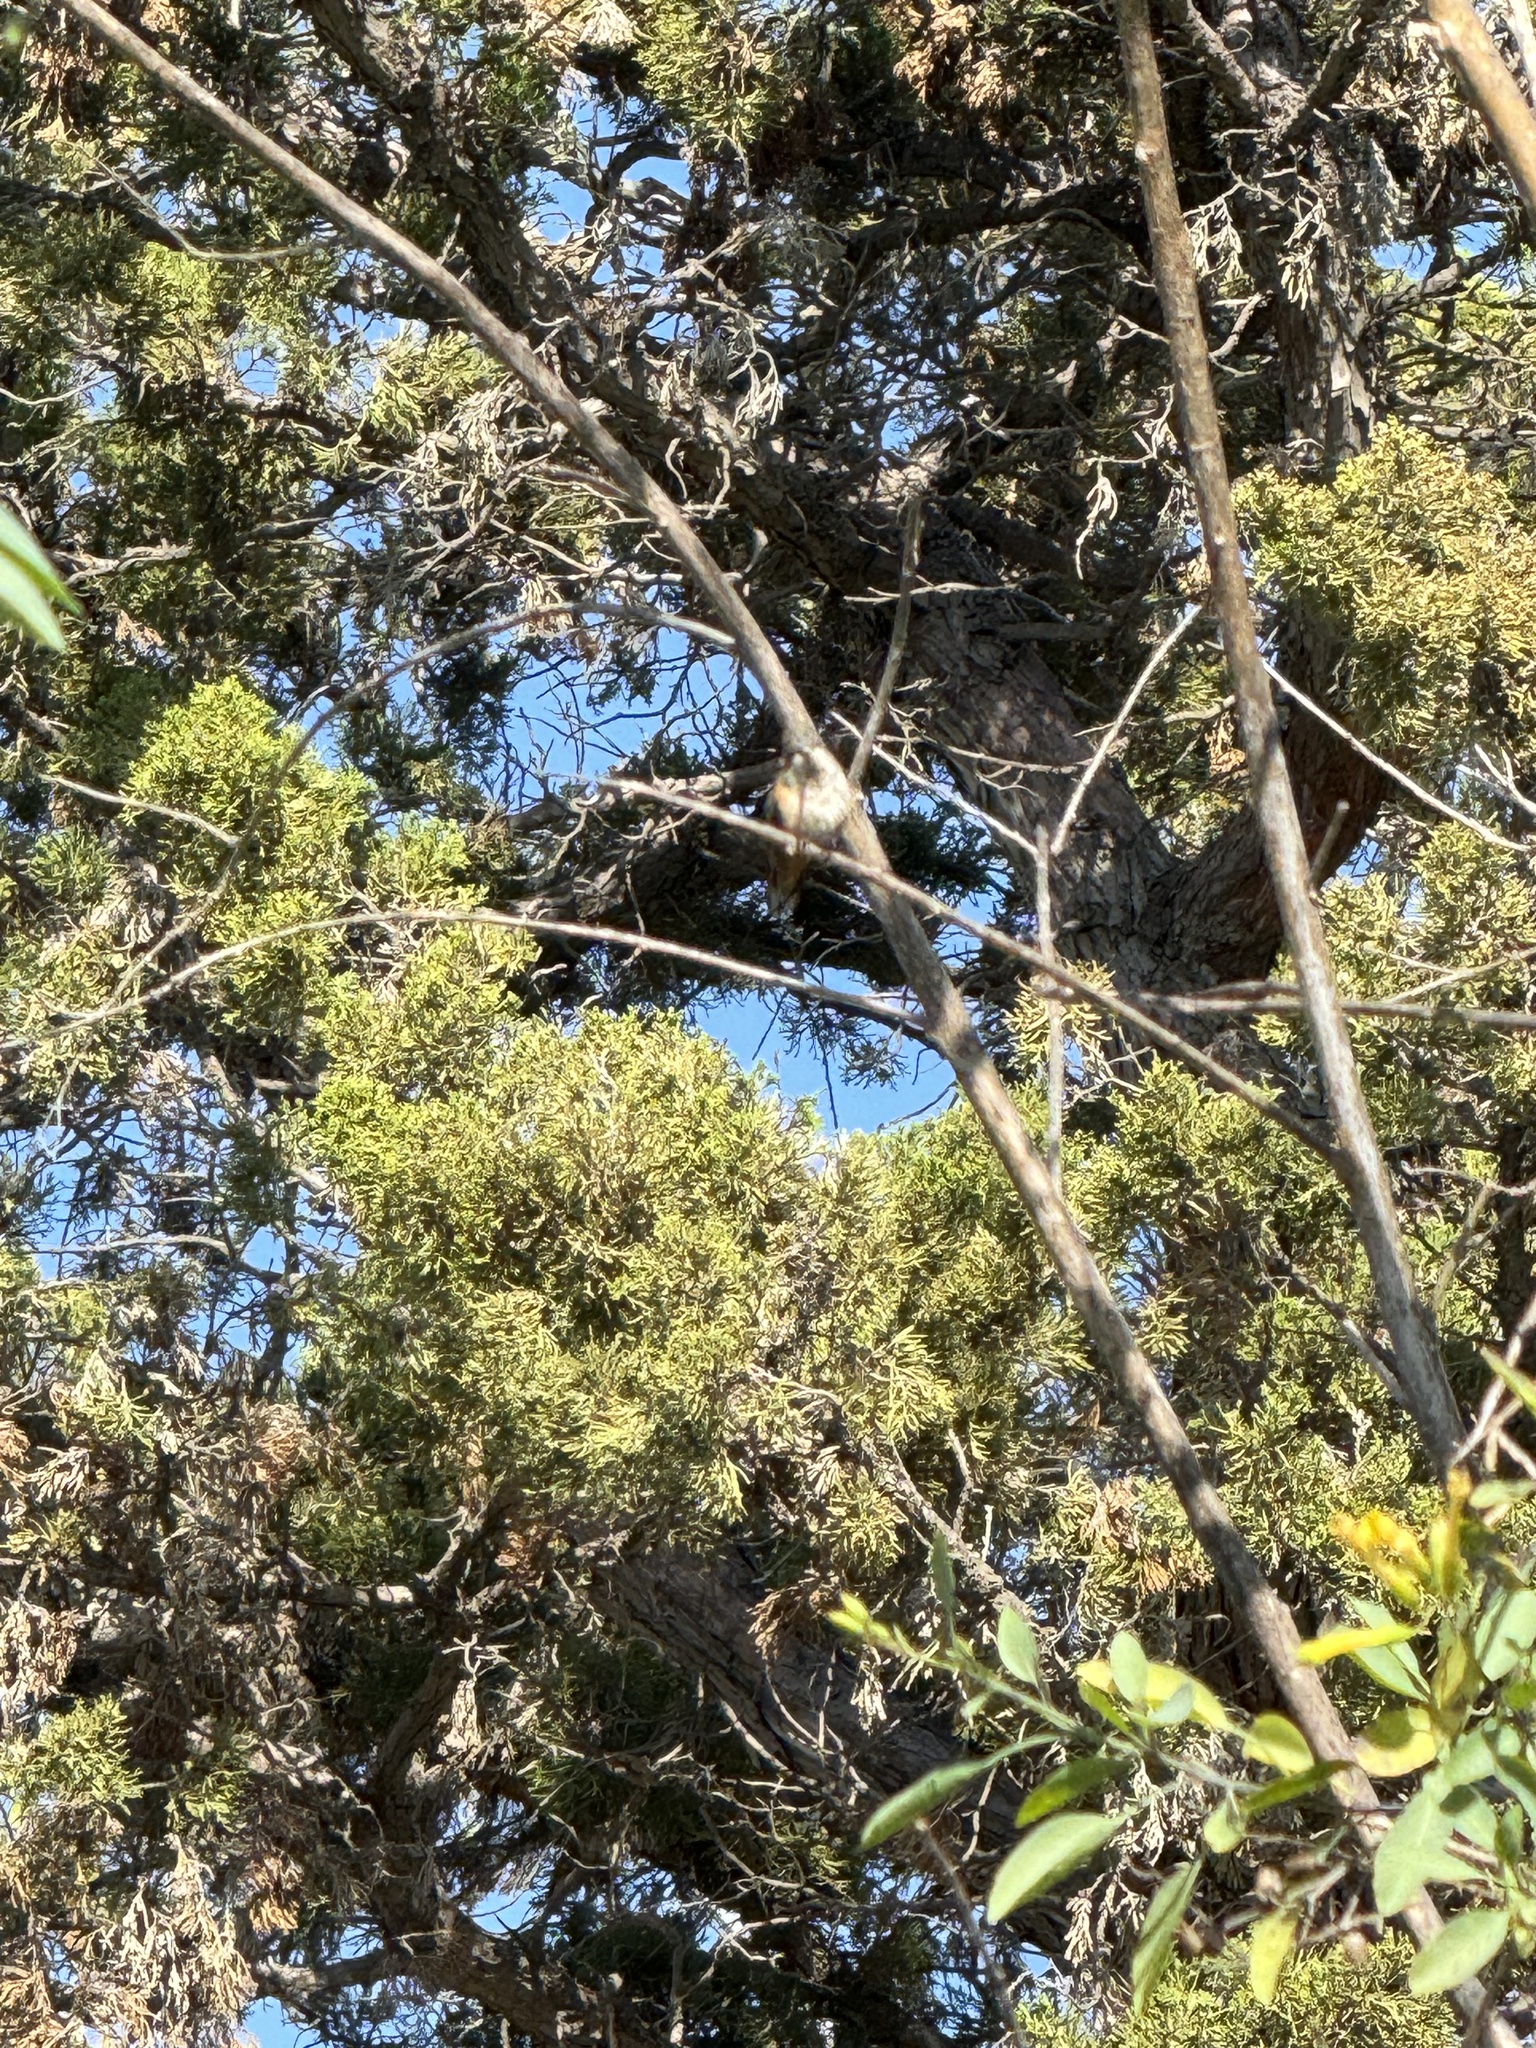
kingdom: Animalia
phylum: Chordata
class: Aves
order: Apodiformes
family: Trochilidae
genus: Selasphorus
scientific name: Selasphorus
